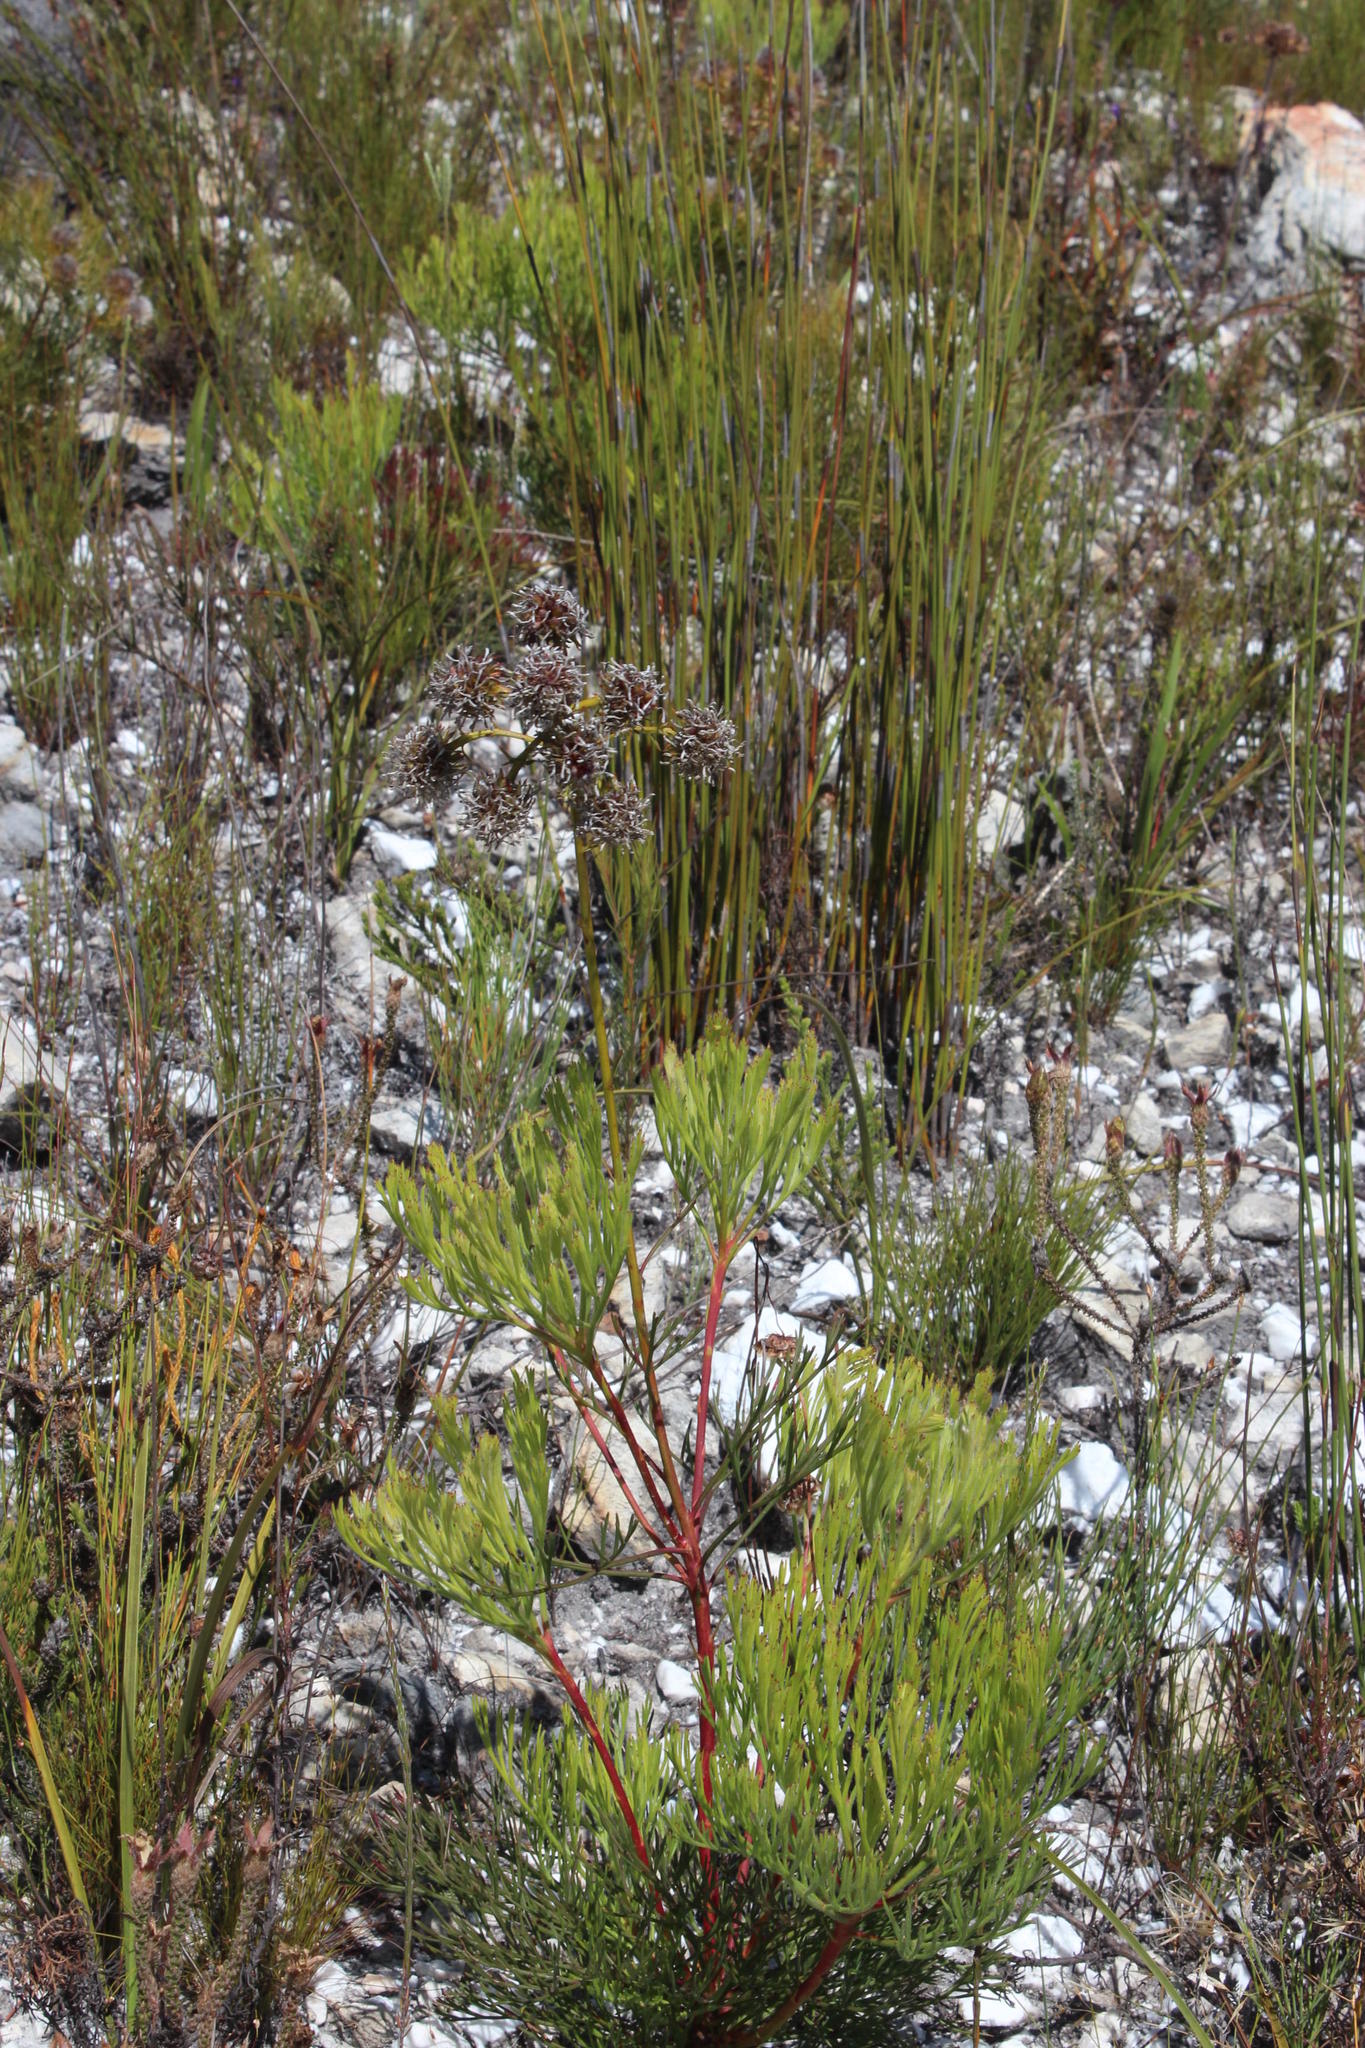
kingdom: Plantae
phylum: Tracheophyta
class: Magnoliopsida
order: Proteales
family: Proteaceae
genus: Serruria
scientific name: Serruria elongata
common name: Long-stalk spiderhead
